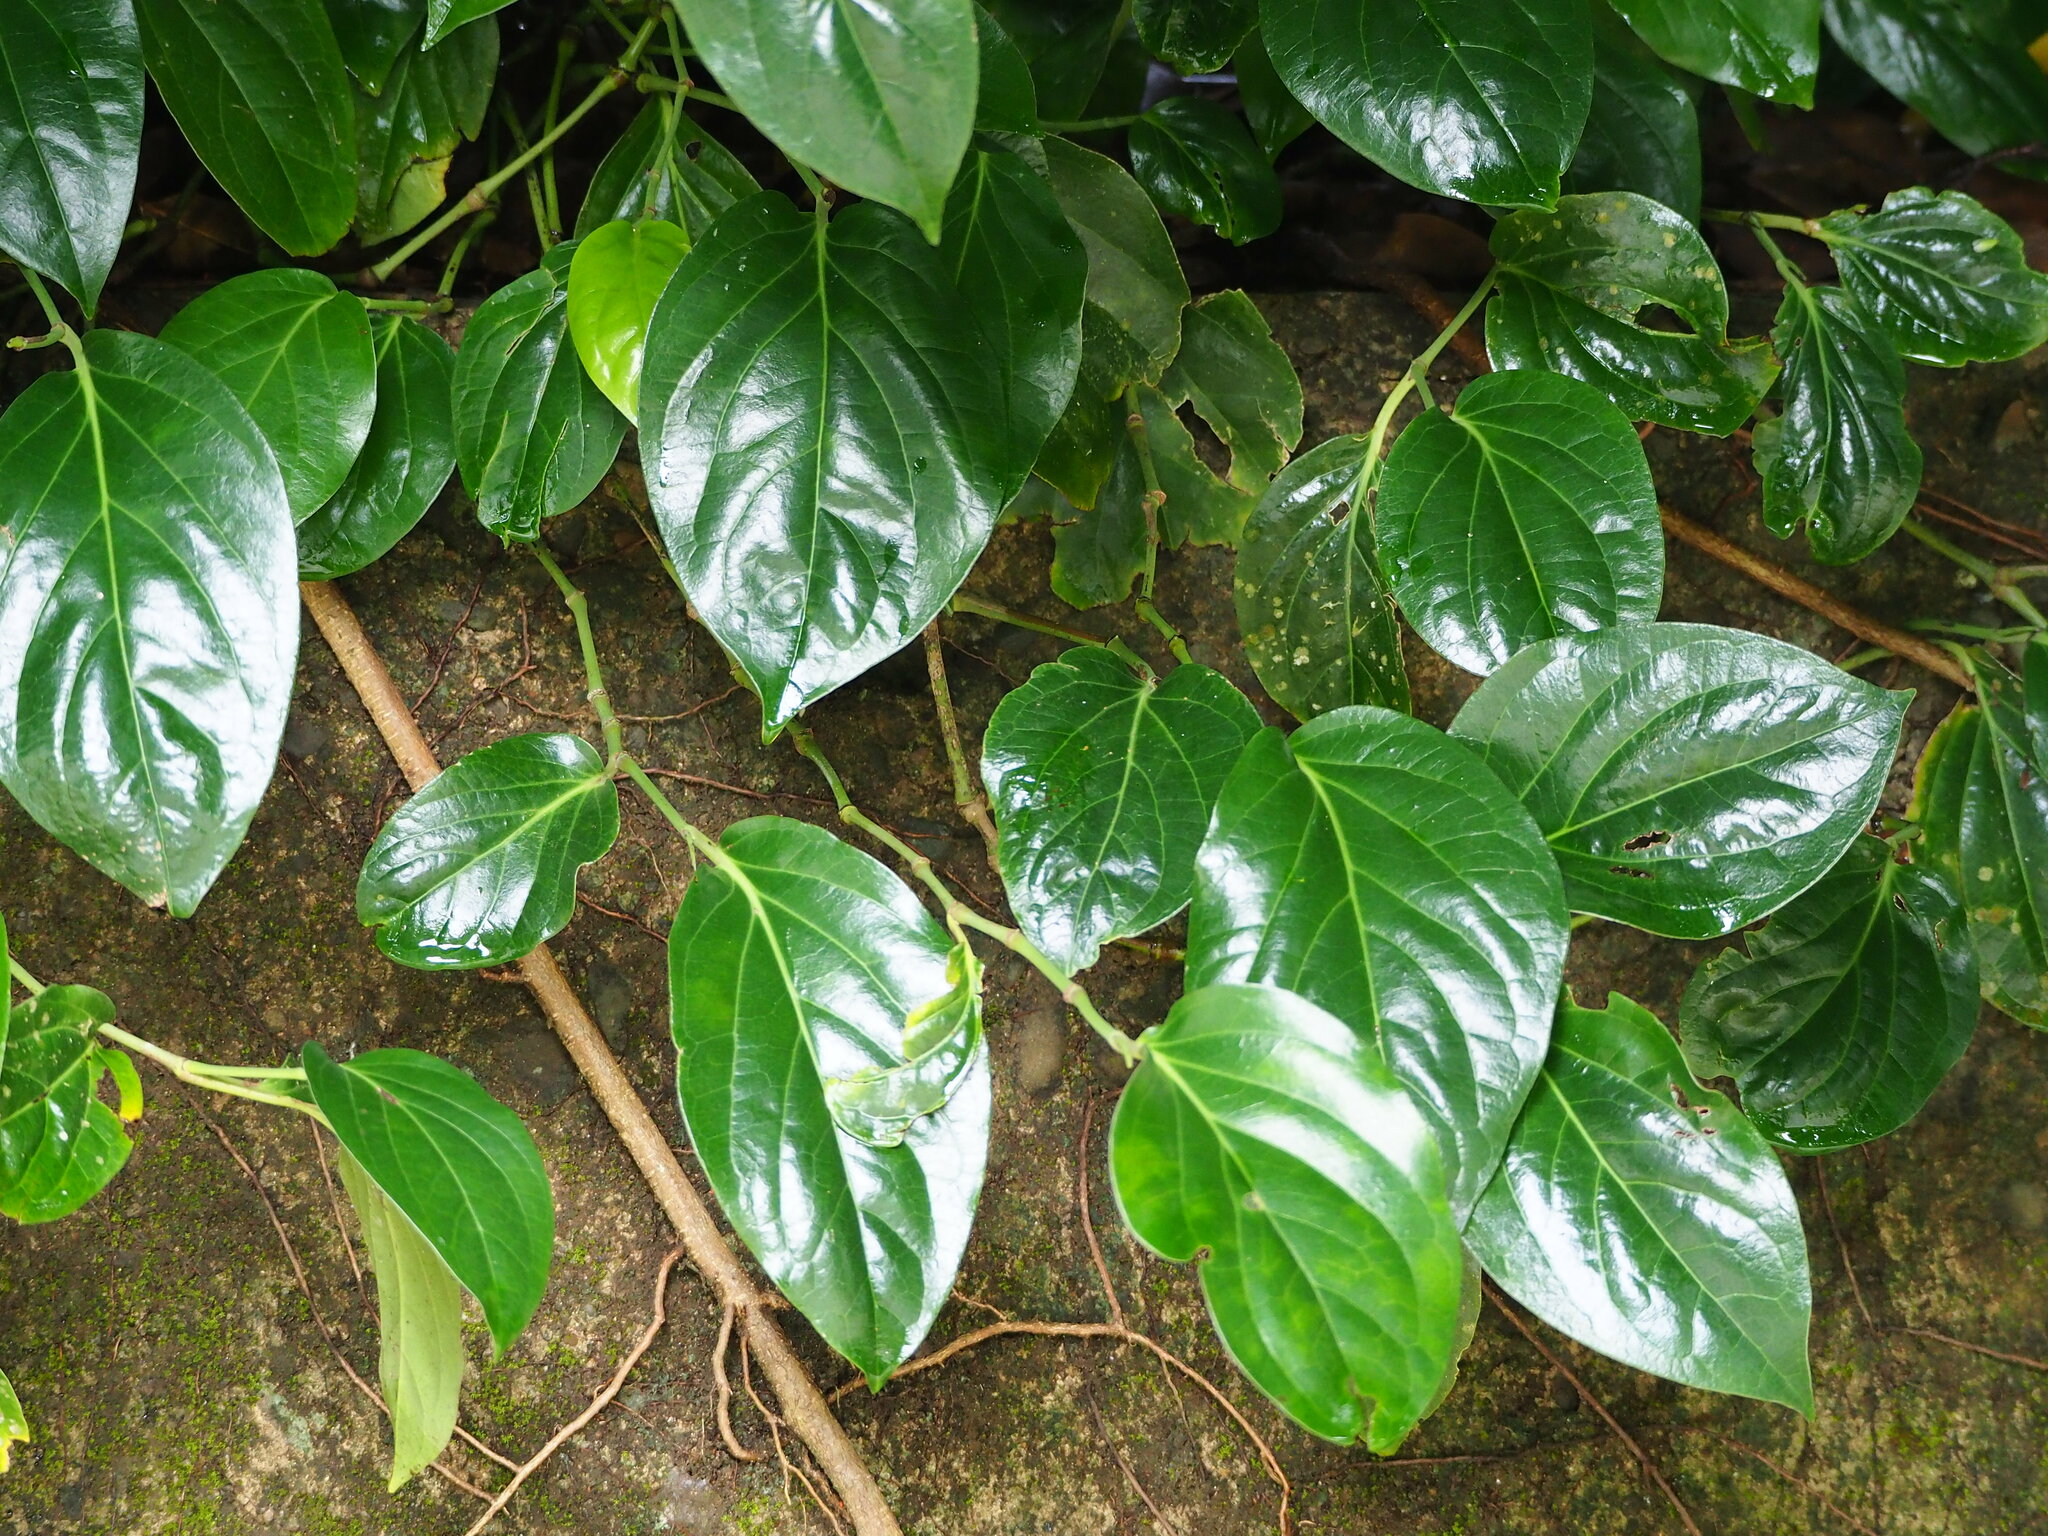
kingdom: Plantae
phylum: Tracheophyta
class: Magnoliopsida
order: Piperales
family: Piperaceae
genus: Piper
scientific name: Piper kawakamii
